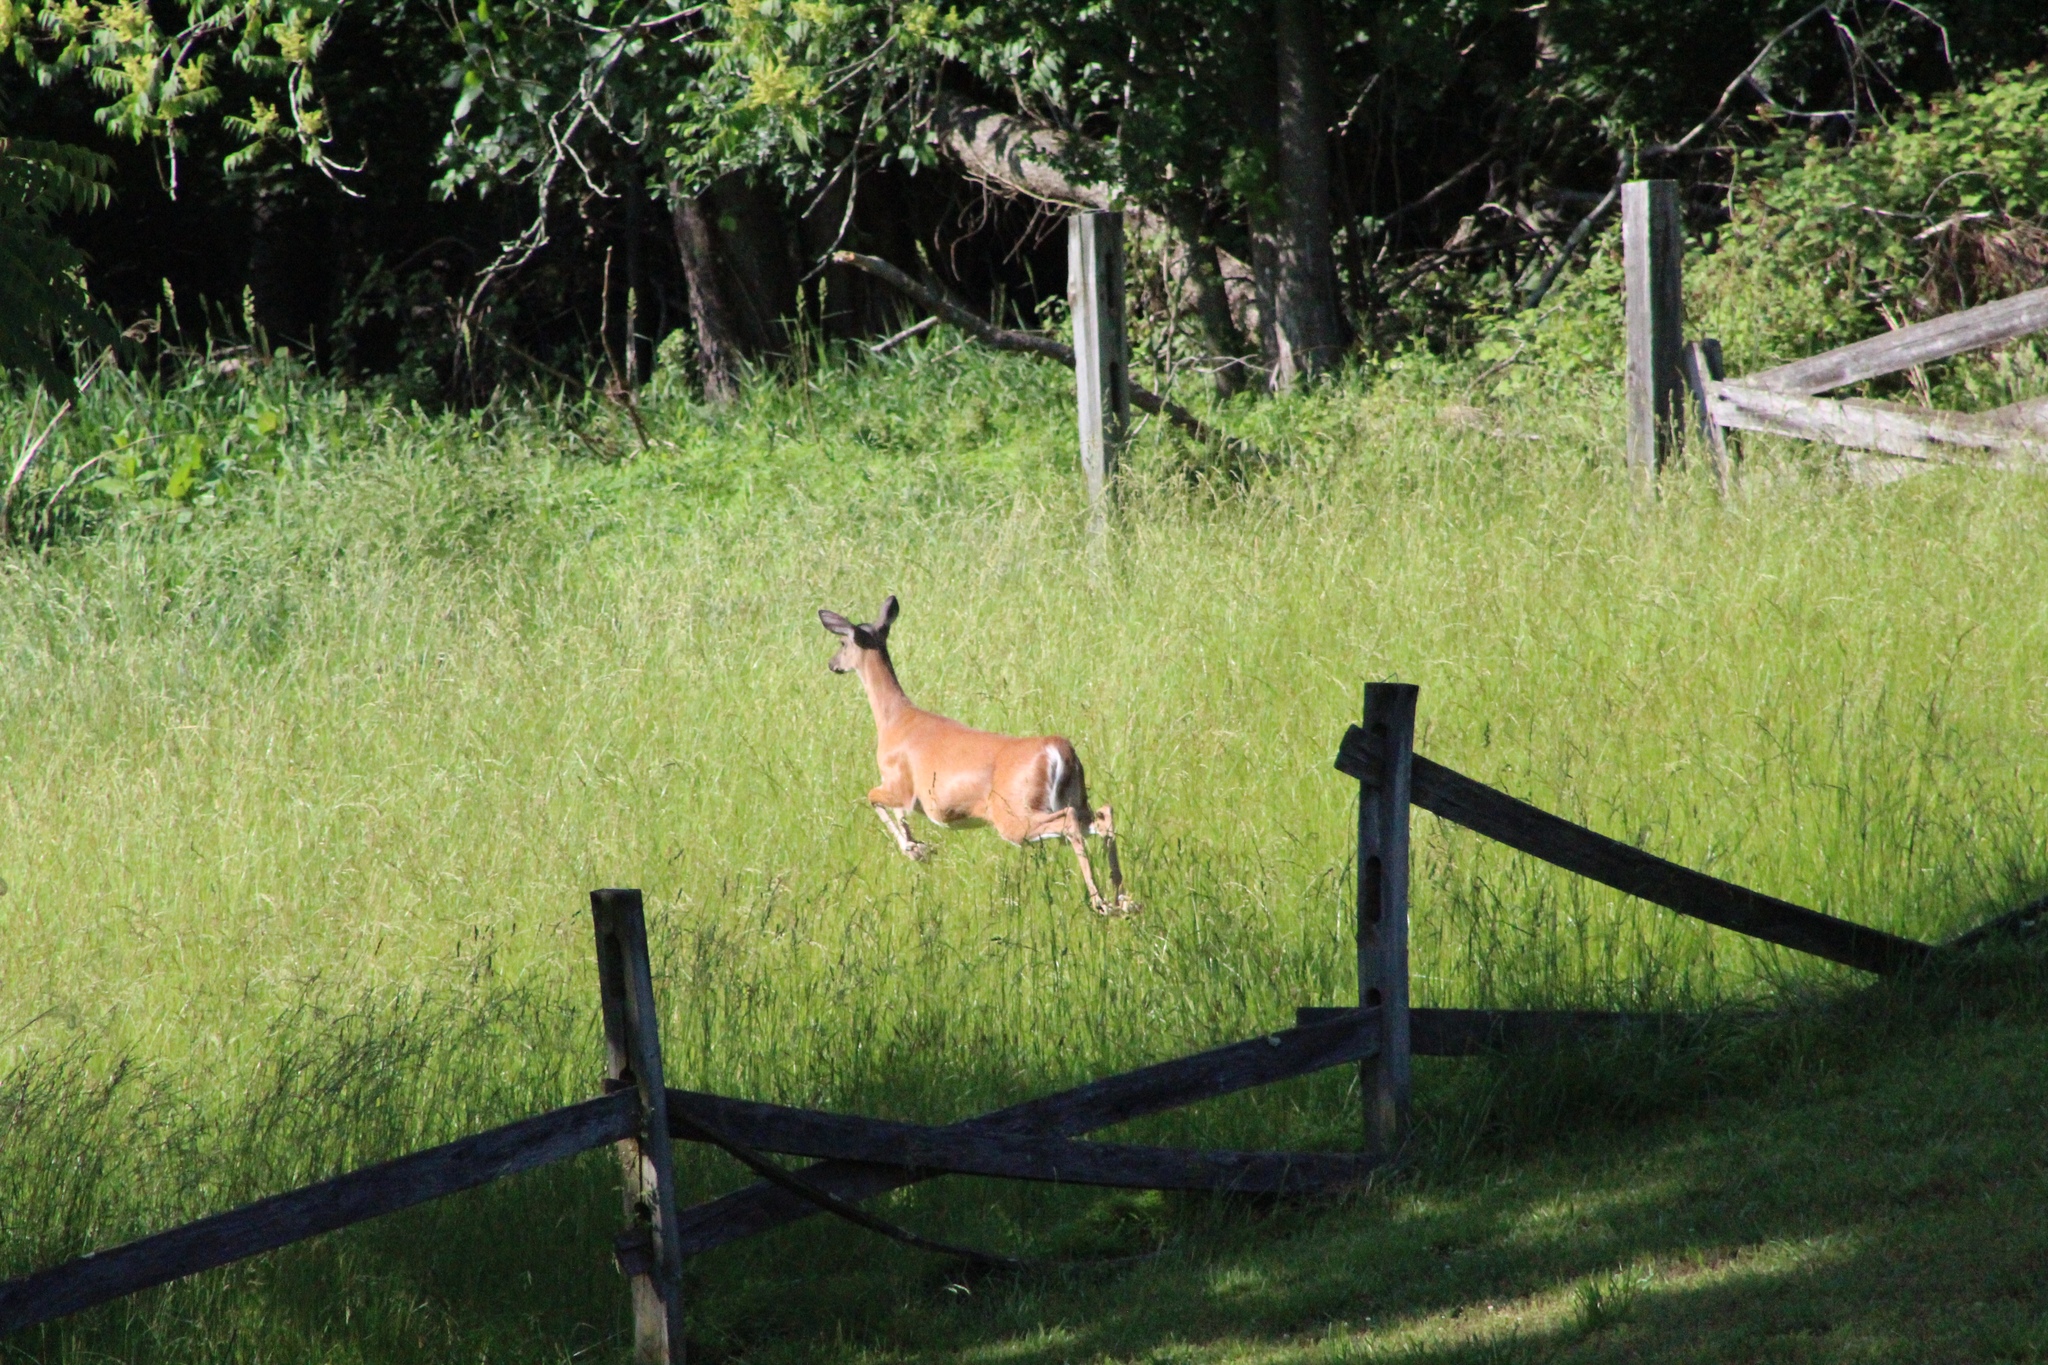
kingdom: Animalia
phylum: Chordata
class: Mammalia
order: Artiodactyla
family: Cervidae
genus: Odocoileus
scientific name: Odocoileus virginianus
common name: White-tailed deer
